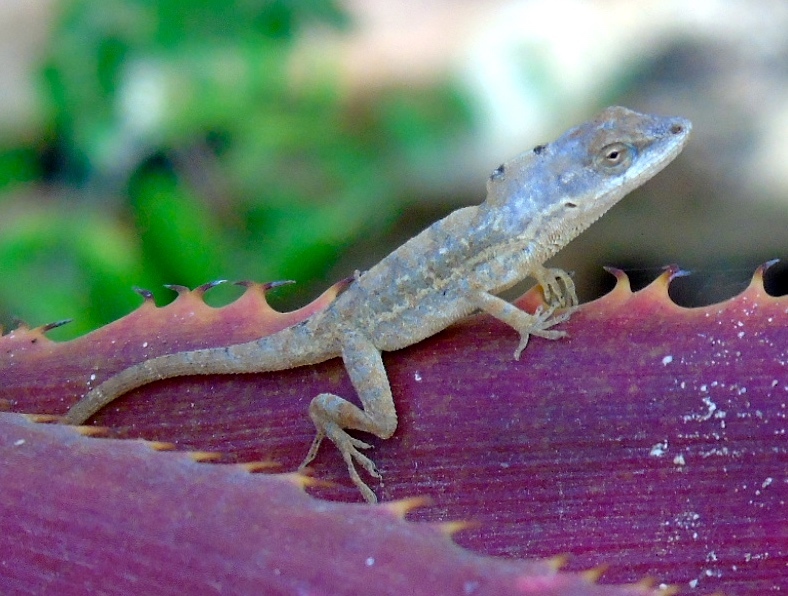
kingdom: Animalia
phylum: Chordata
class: Squamata
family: Dactyloidae
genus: Anolis
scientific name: Anolis nebulosus
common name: Clouded anole
